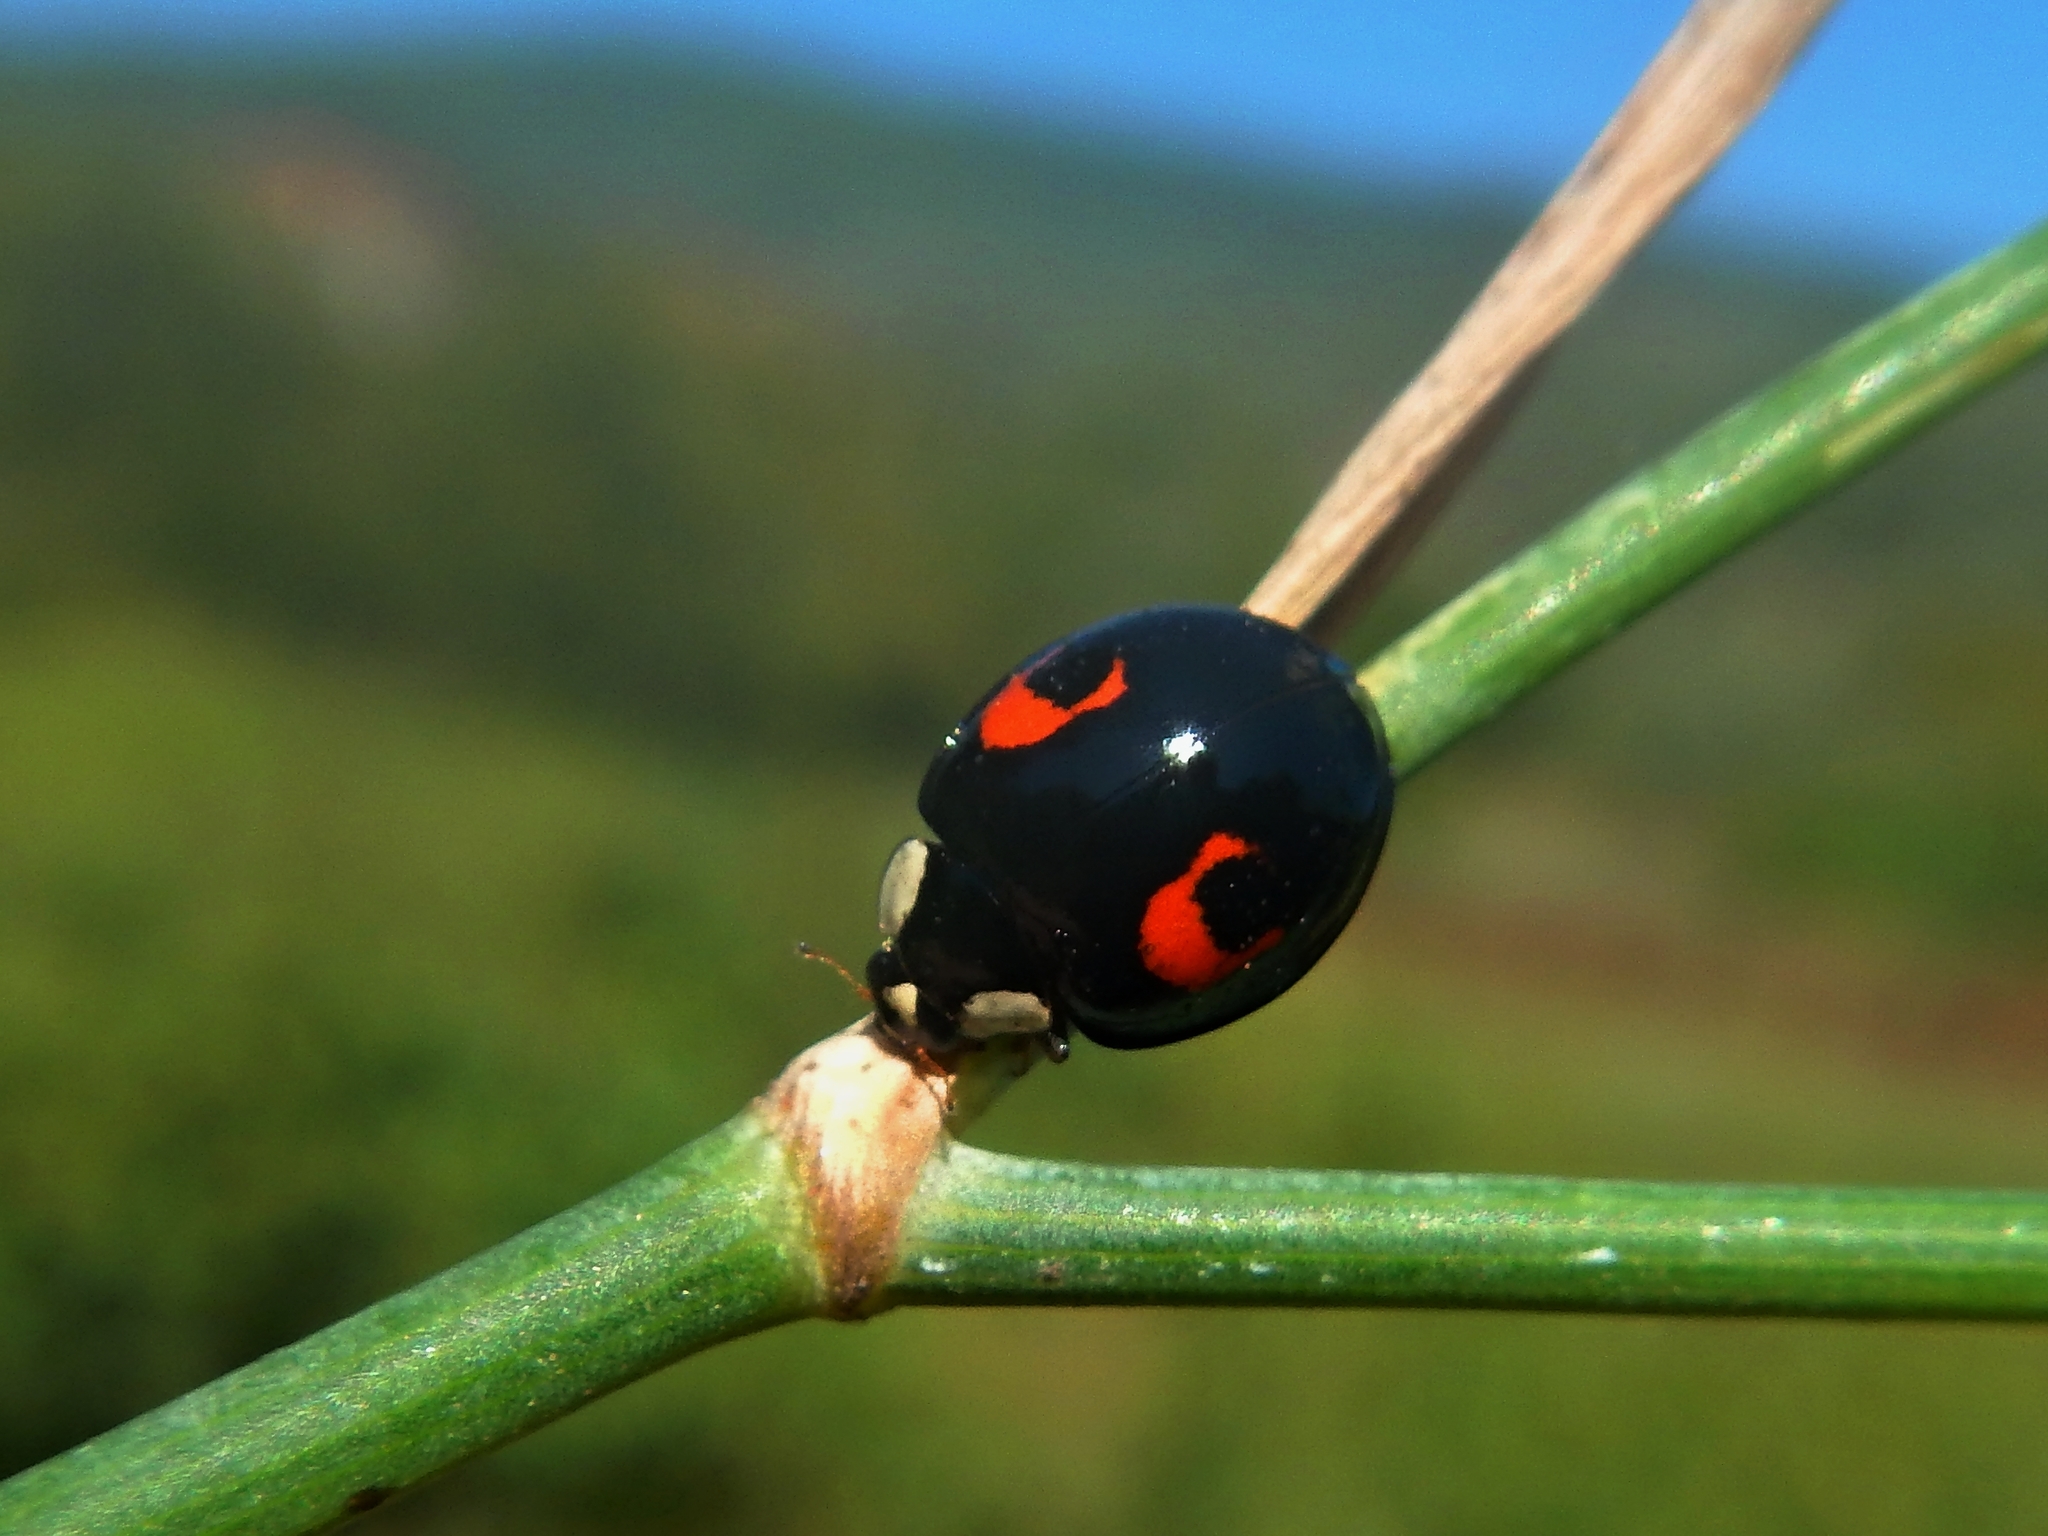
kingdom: Animalia
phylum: Arthropoda
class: Insecta
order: Coleoptera
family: Coccinellidae
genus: Harmonia
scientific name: Harmonia axyridis
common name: Harlequin ladybird
